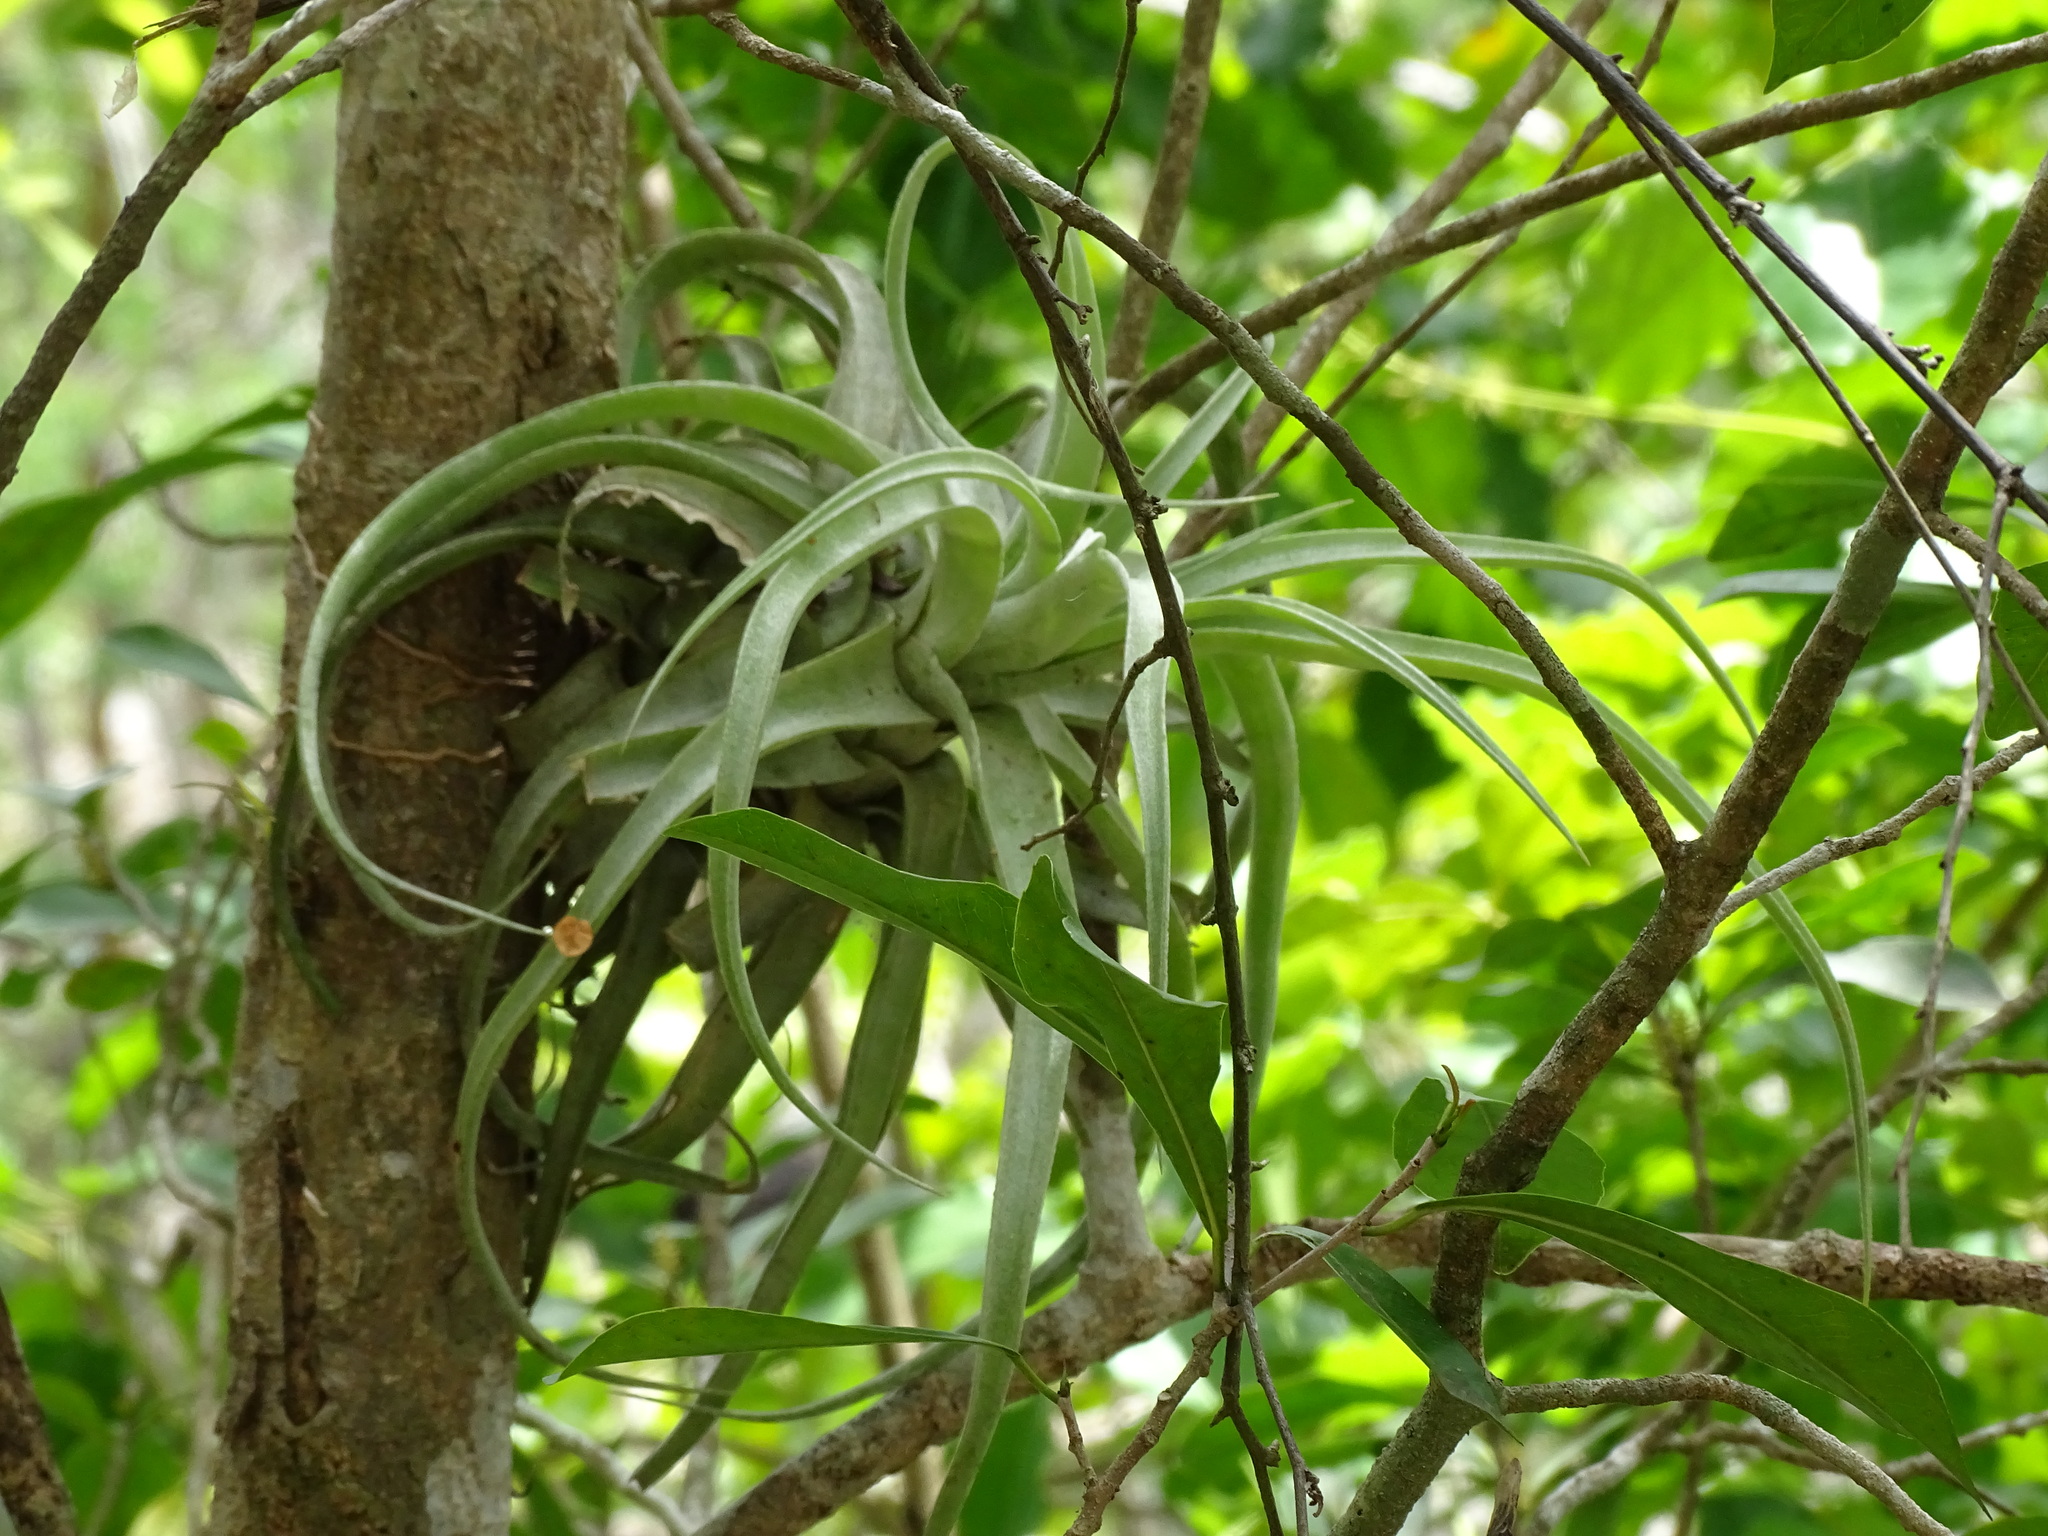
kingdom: Plantae
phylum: Tracheophyta
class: Liliopsida
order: Poales
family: Bromeliaceae
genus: Tillandsia
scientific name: Tillandsia streptophylla
